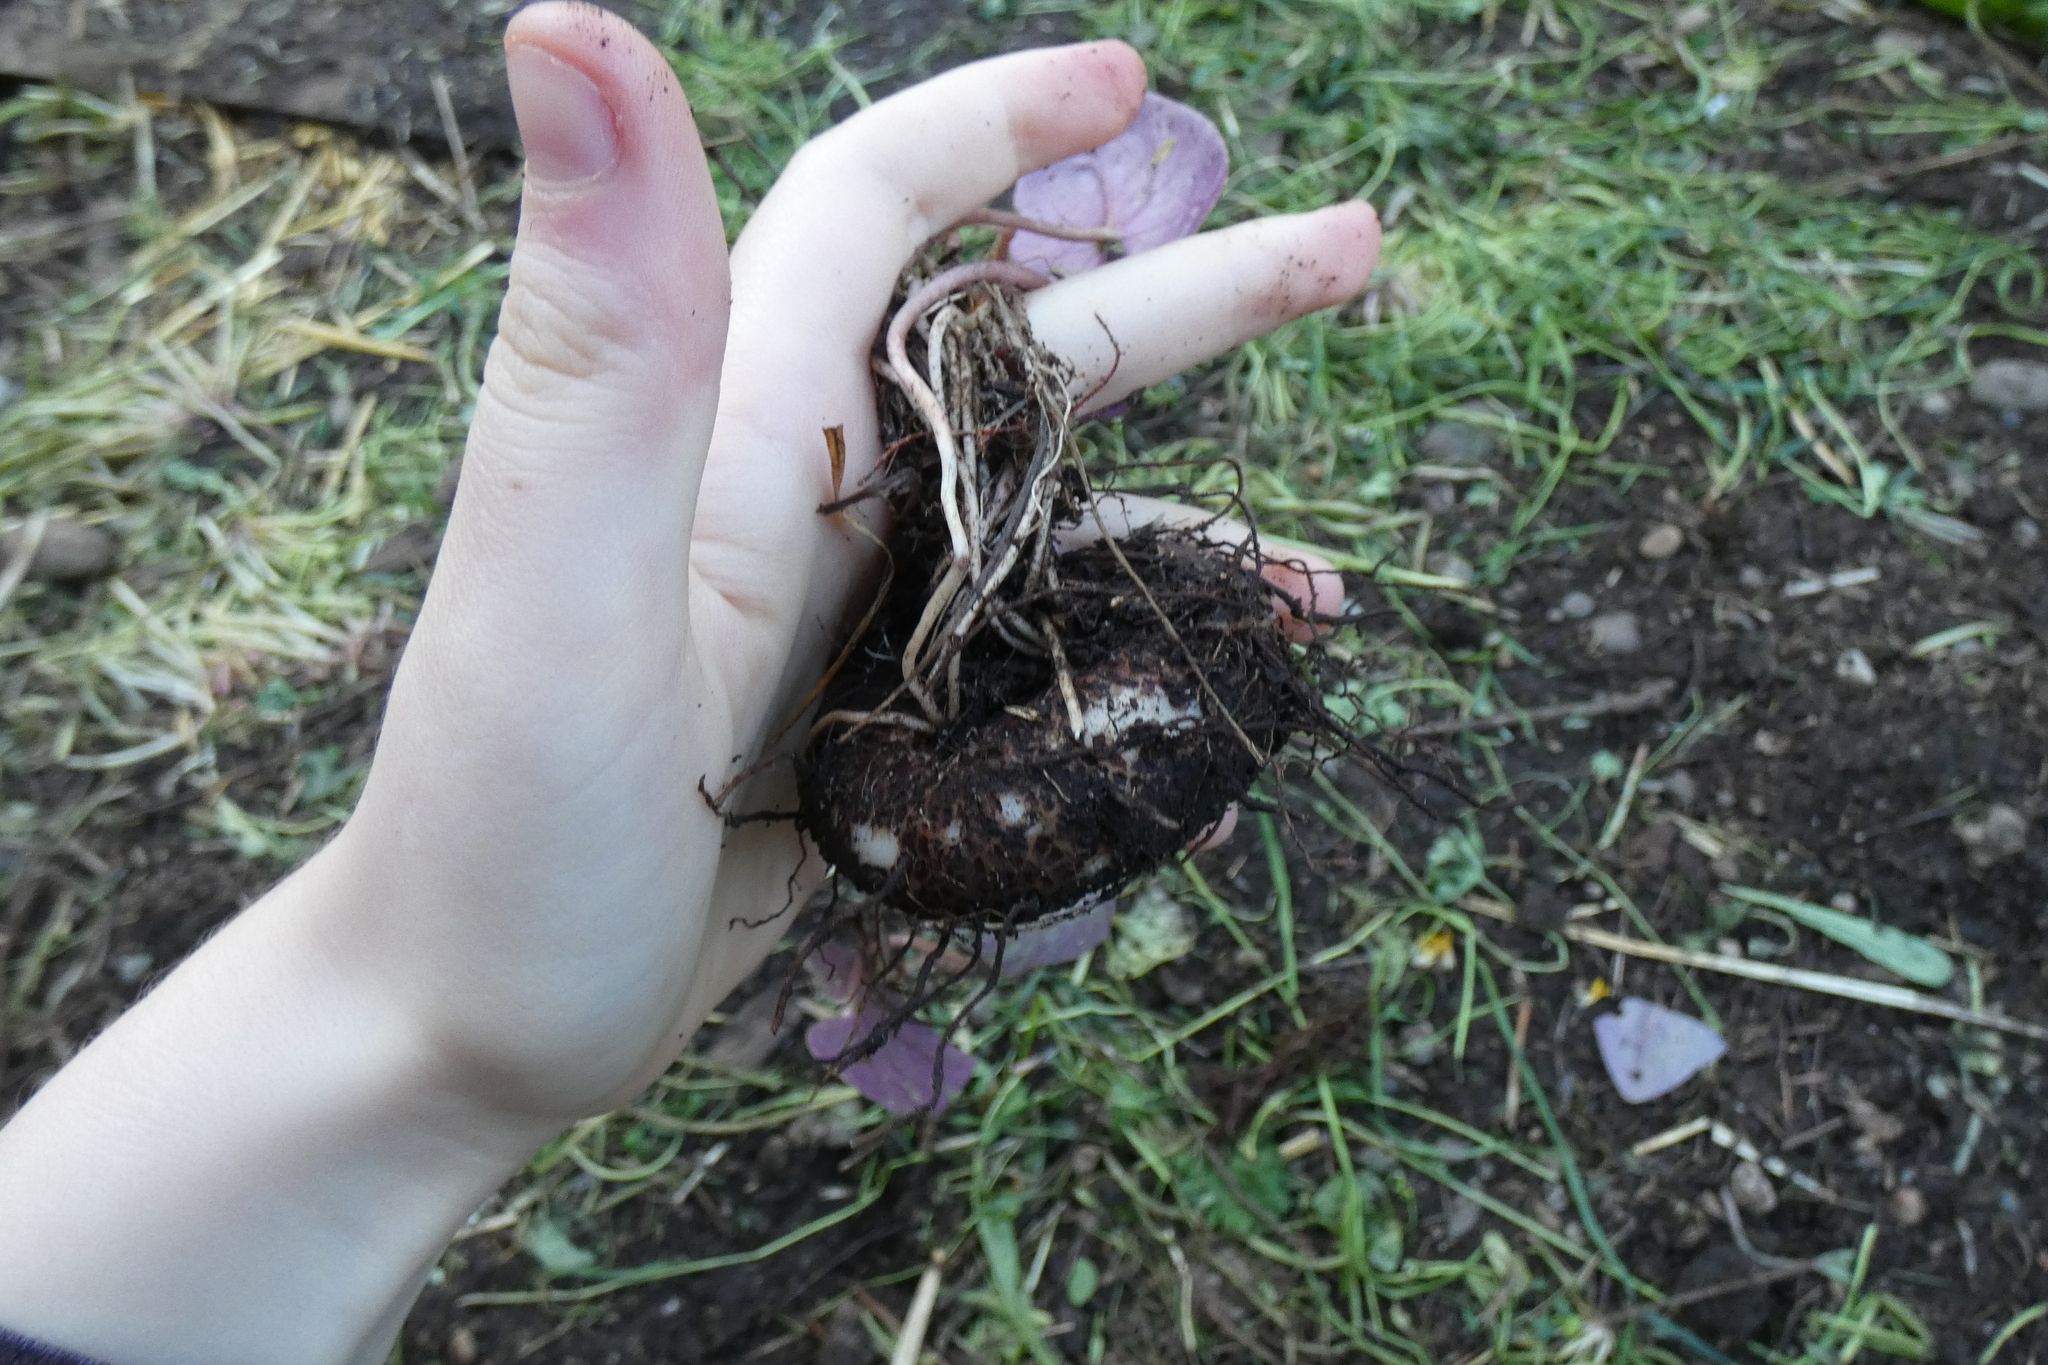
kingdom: Plantae
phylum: Tracheophyta
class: Magnoliopsida
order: Ericales
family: Primulaceae
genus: Cyclamen
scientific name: Cyclamen hederifolium
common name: Sowbread
